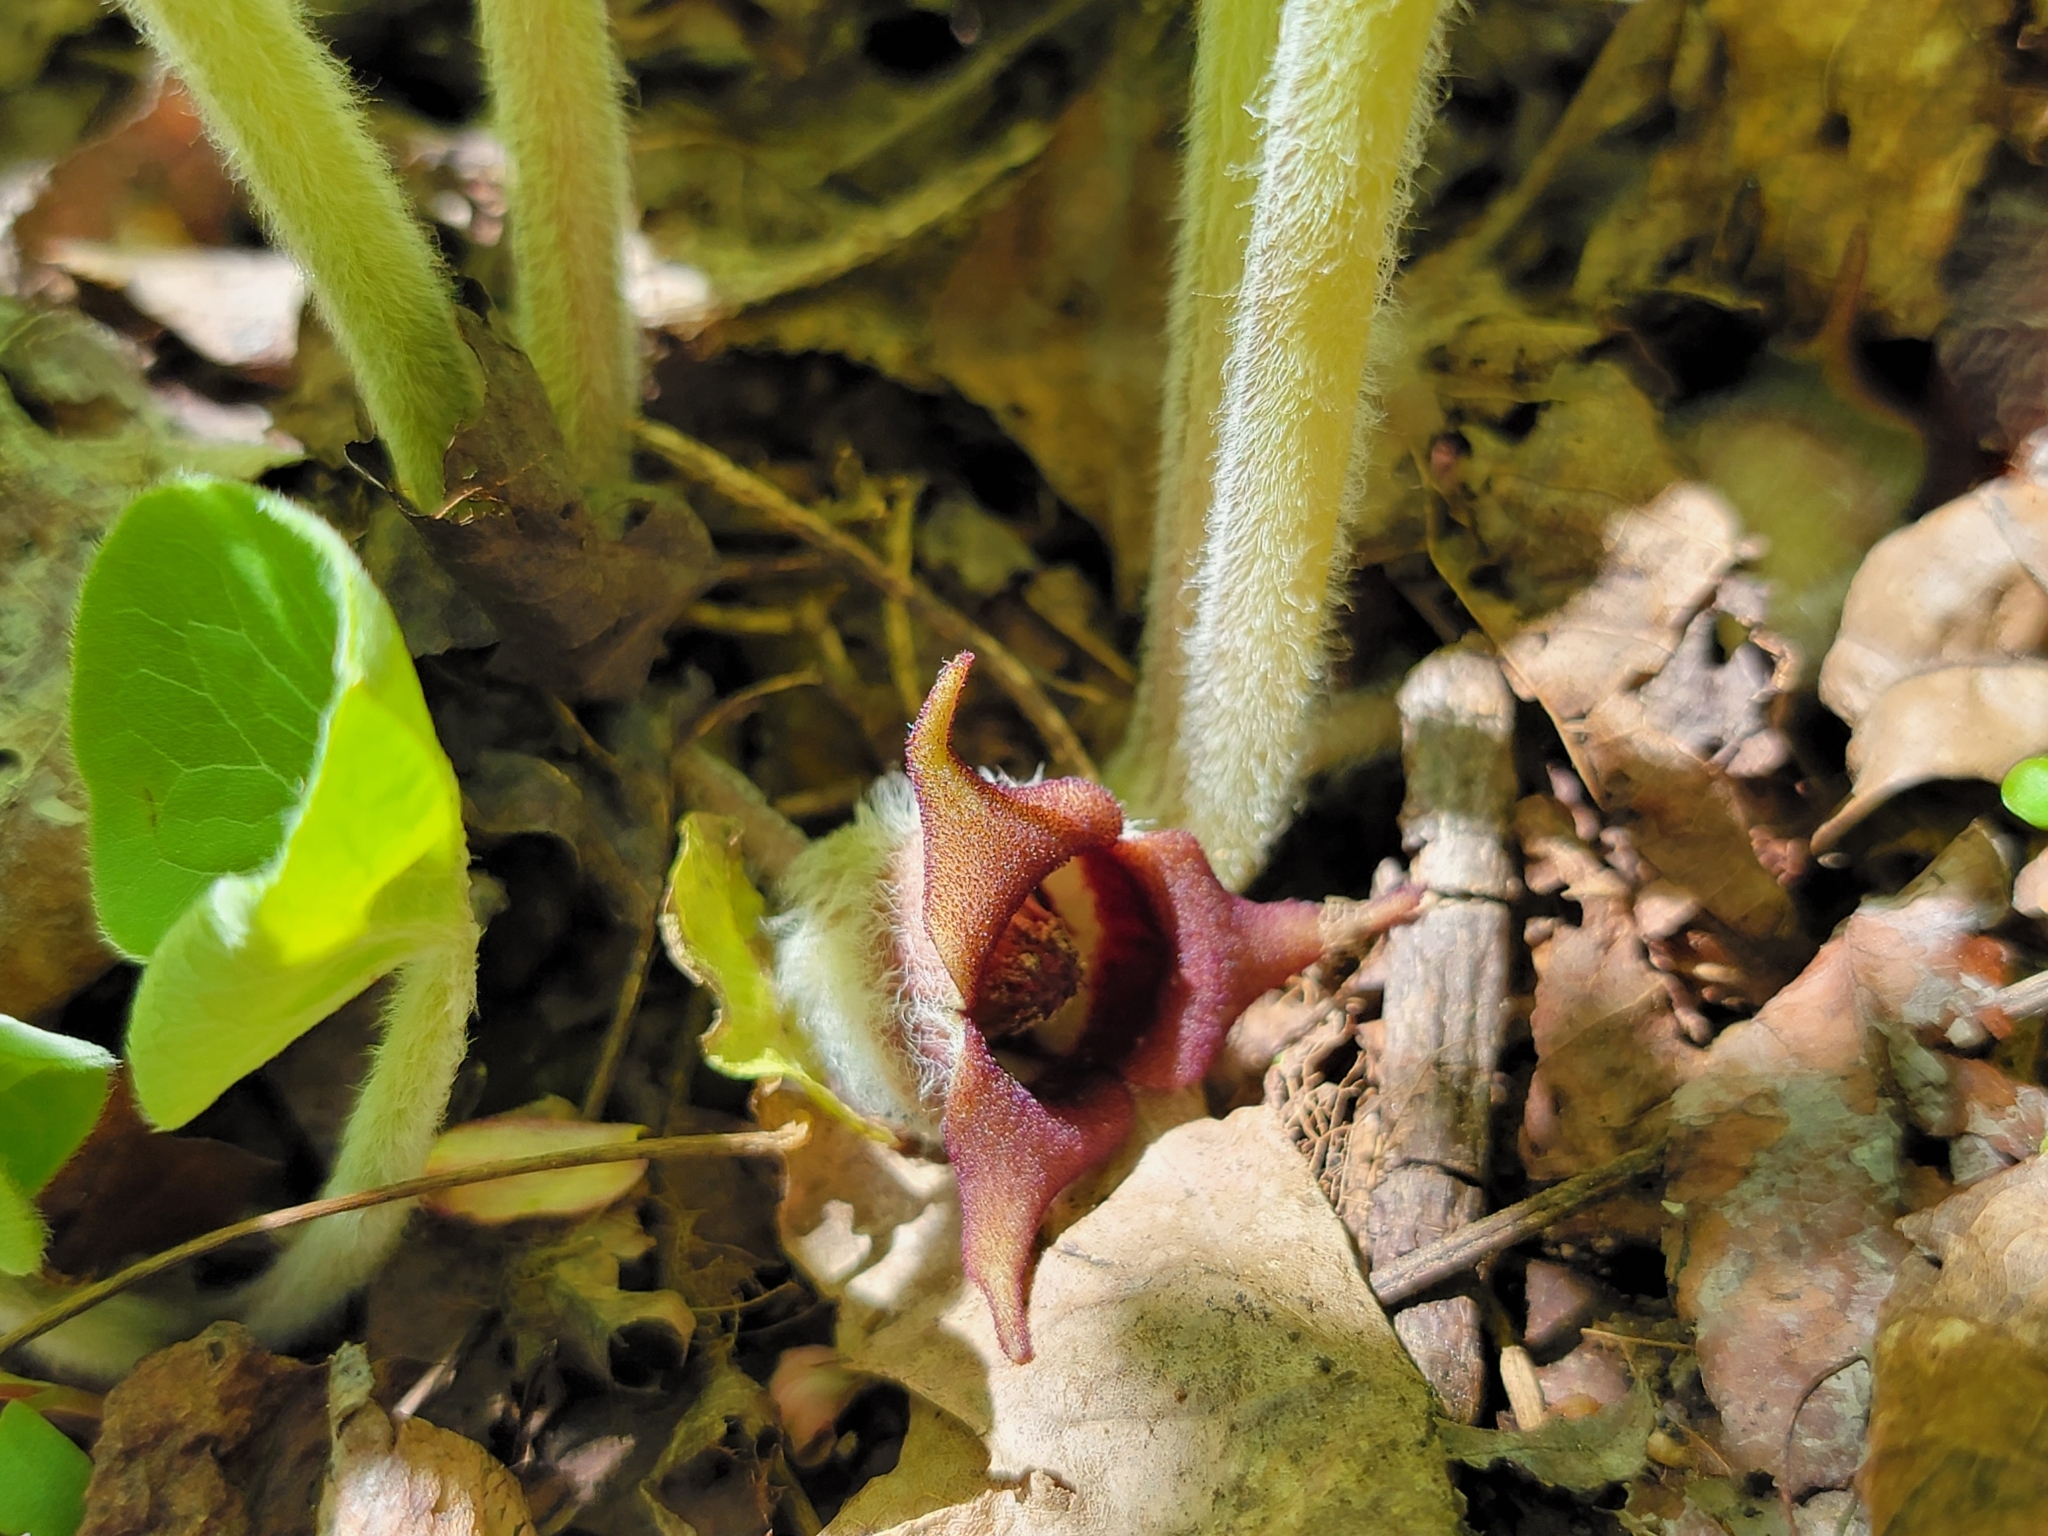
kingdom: Plantae
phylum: Tracheophyta
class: Magnoliopsida
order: Piperales
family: Aristolochiaceae
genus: Asarum
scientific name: Asarum canadense
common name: Wild ginger
